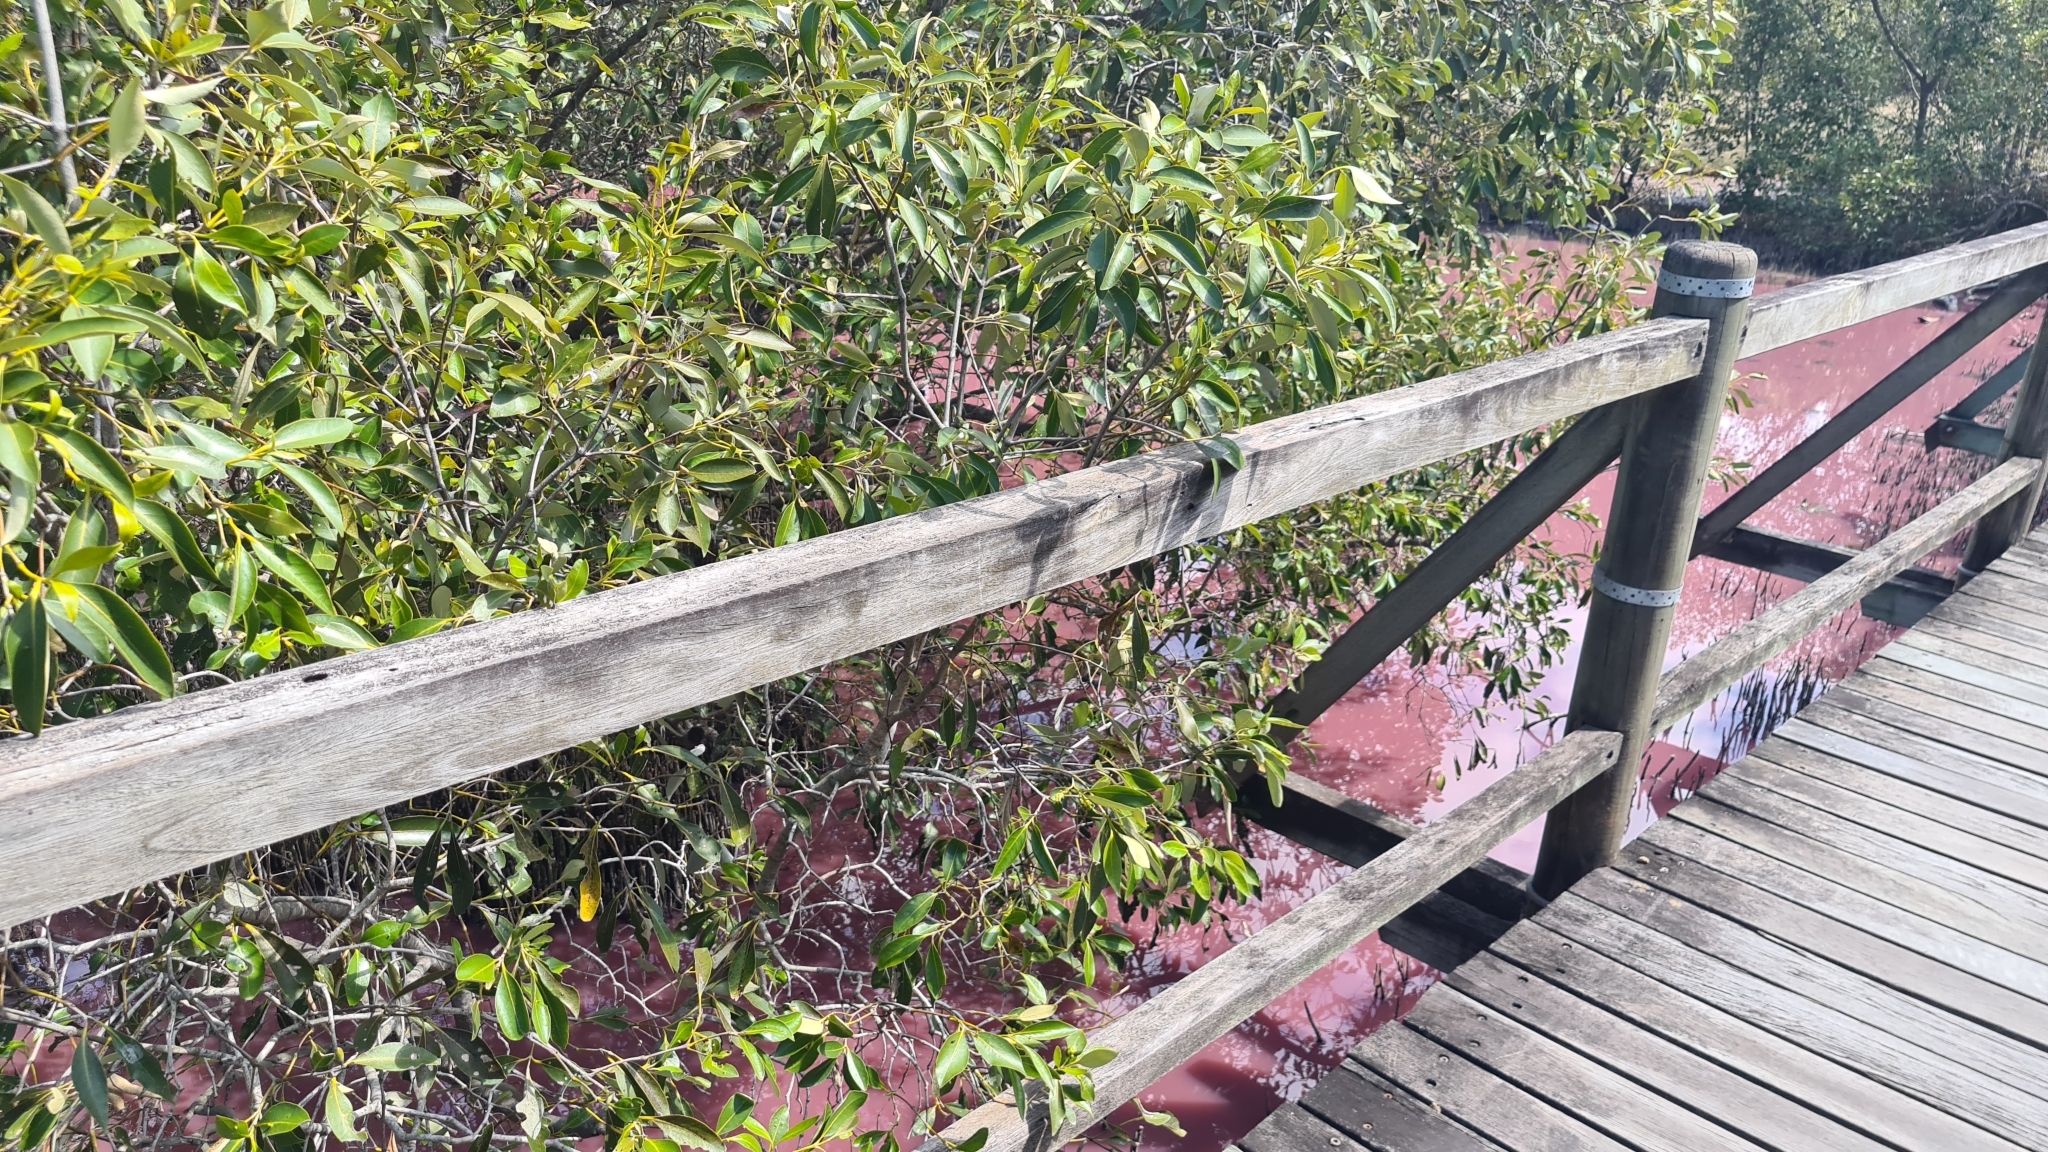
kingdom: Plantae
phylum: Tracheophyta
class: Magnoliopsida
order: Lamiales
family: Acanthaceae
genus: Avicennia
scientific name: Avicennia marina
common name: Gray mangrove
